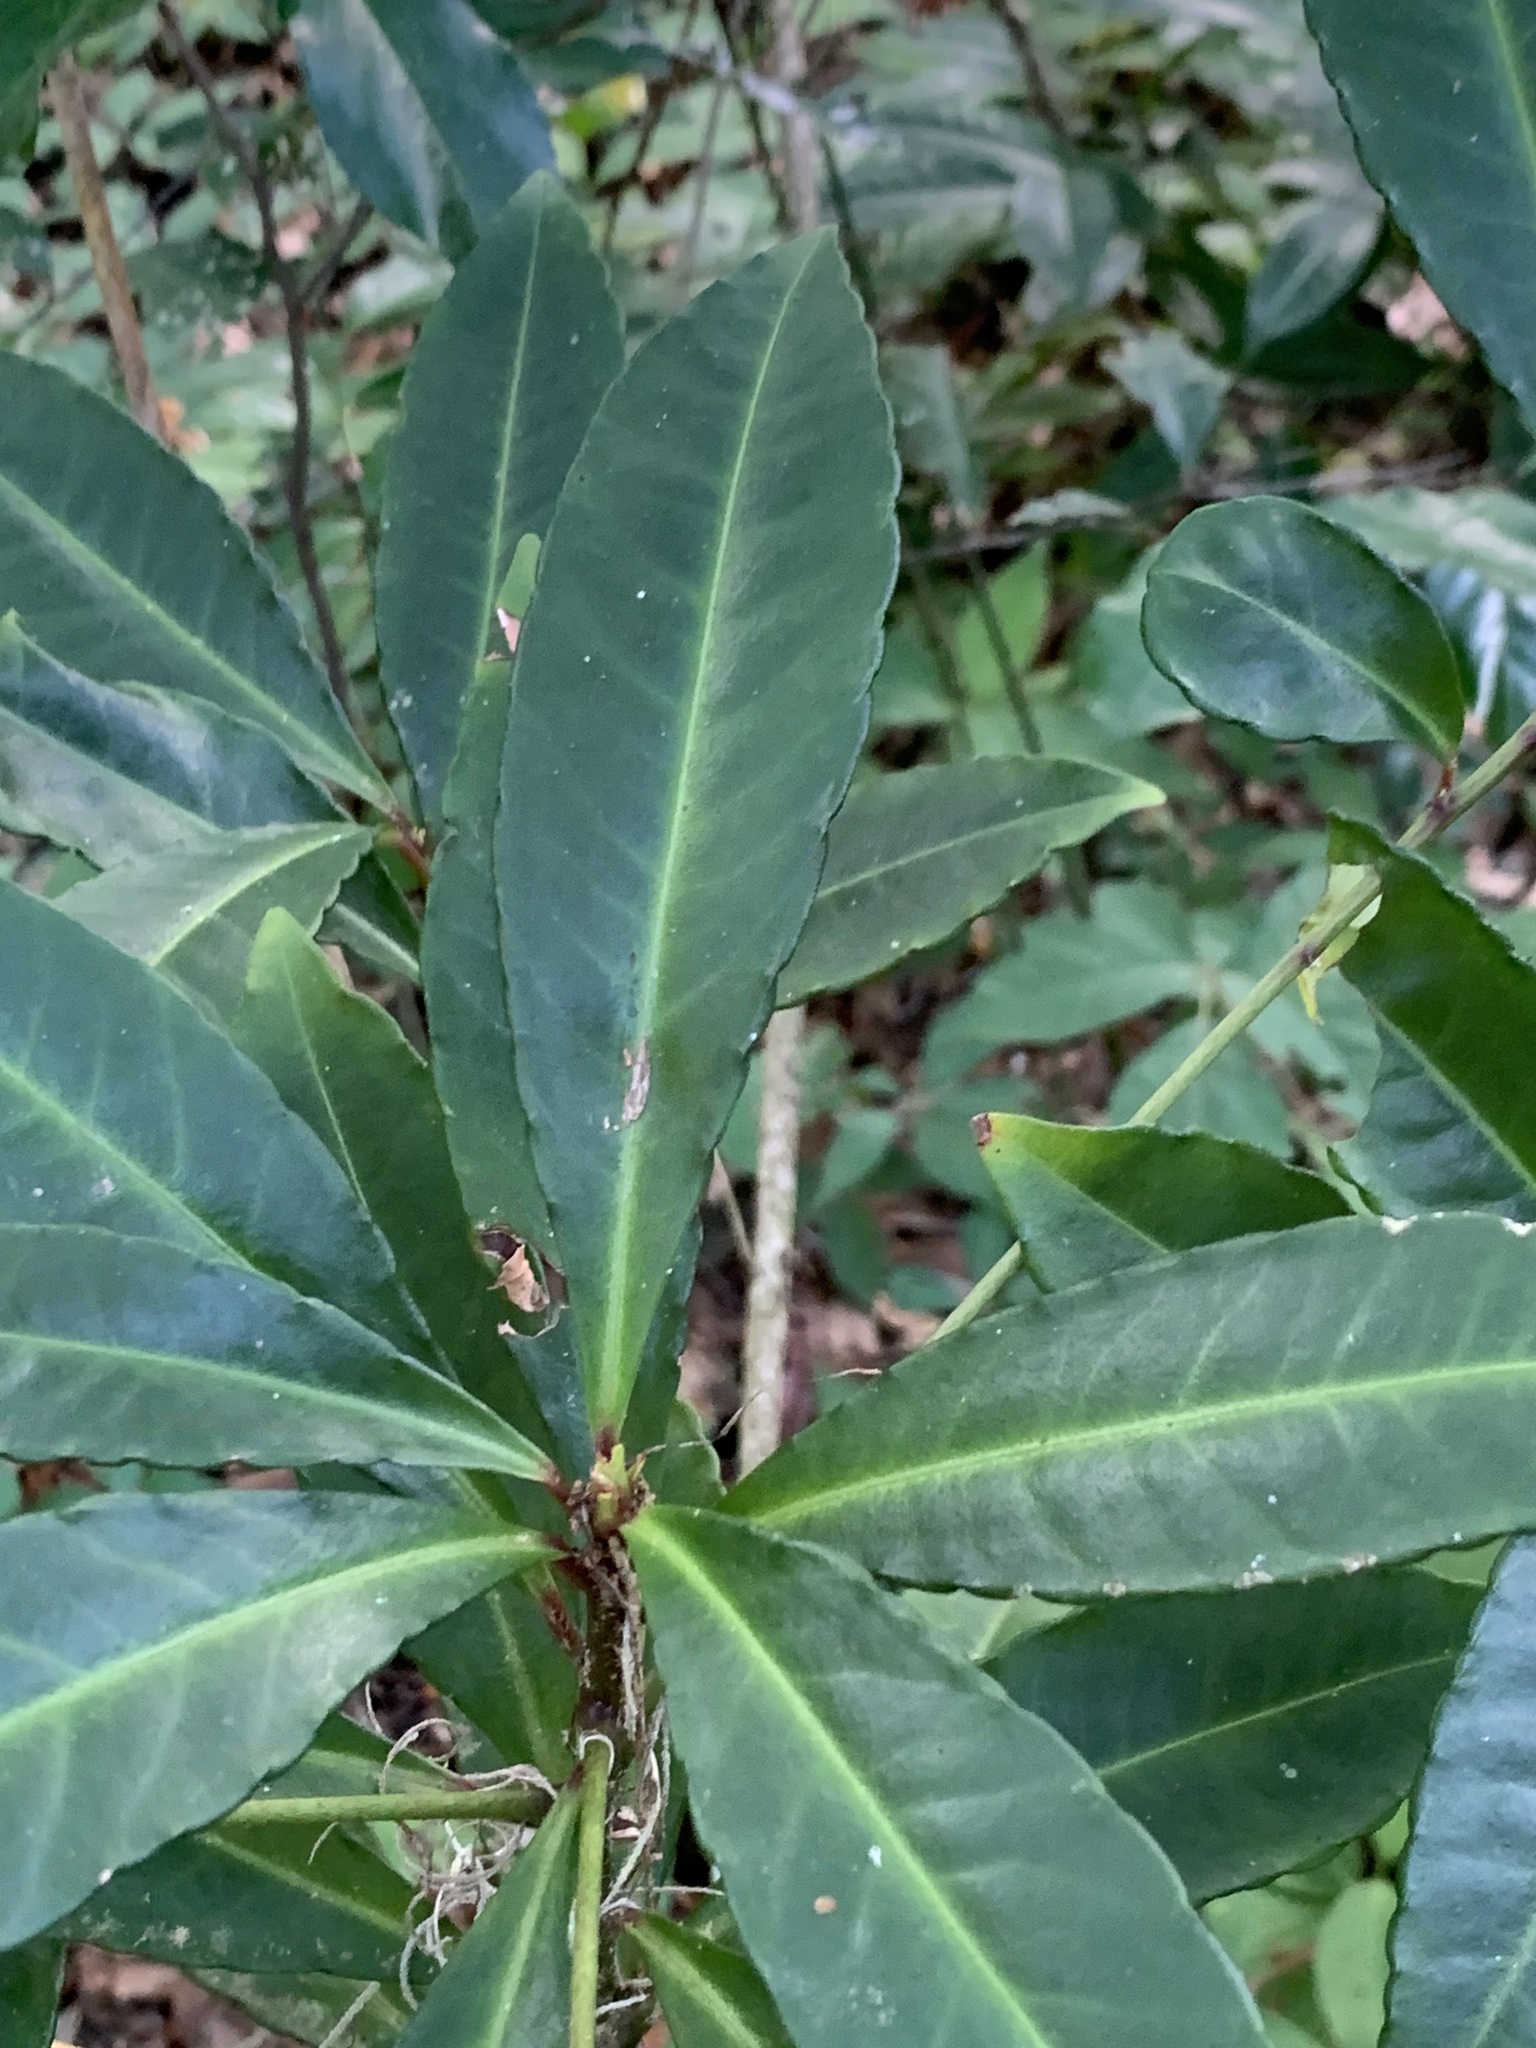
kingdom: Plantae
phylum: Tracheophyta
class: Magnoliopsida
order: Ericales
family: Primulaceae
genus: Ardisia
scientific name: Ardisia crenata
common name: Hen's eyes
